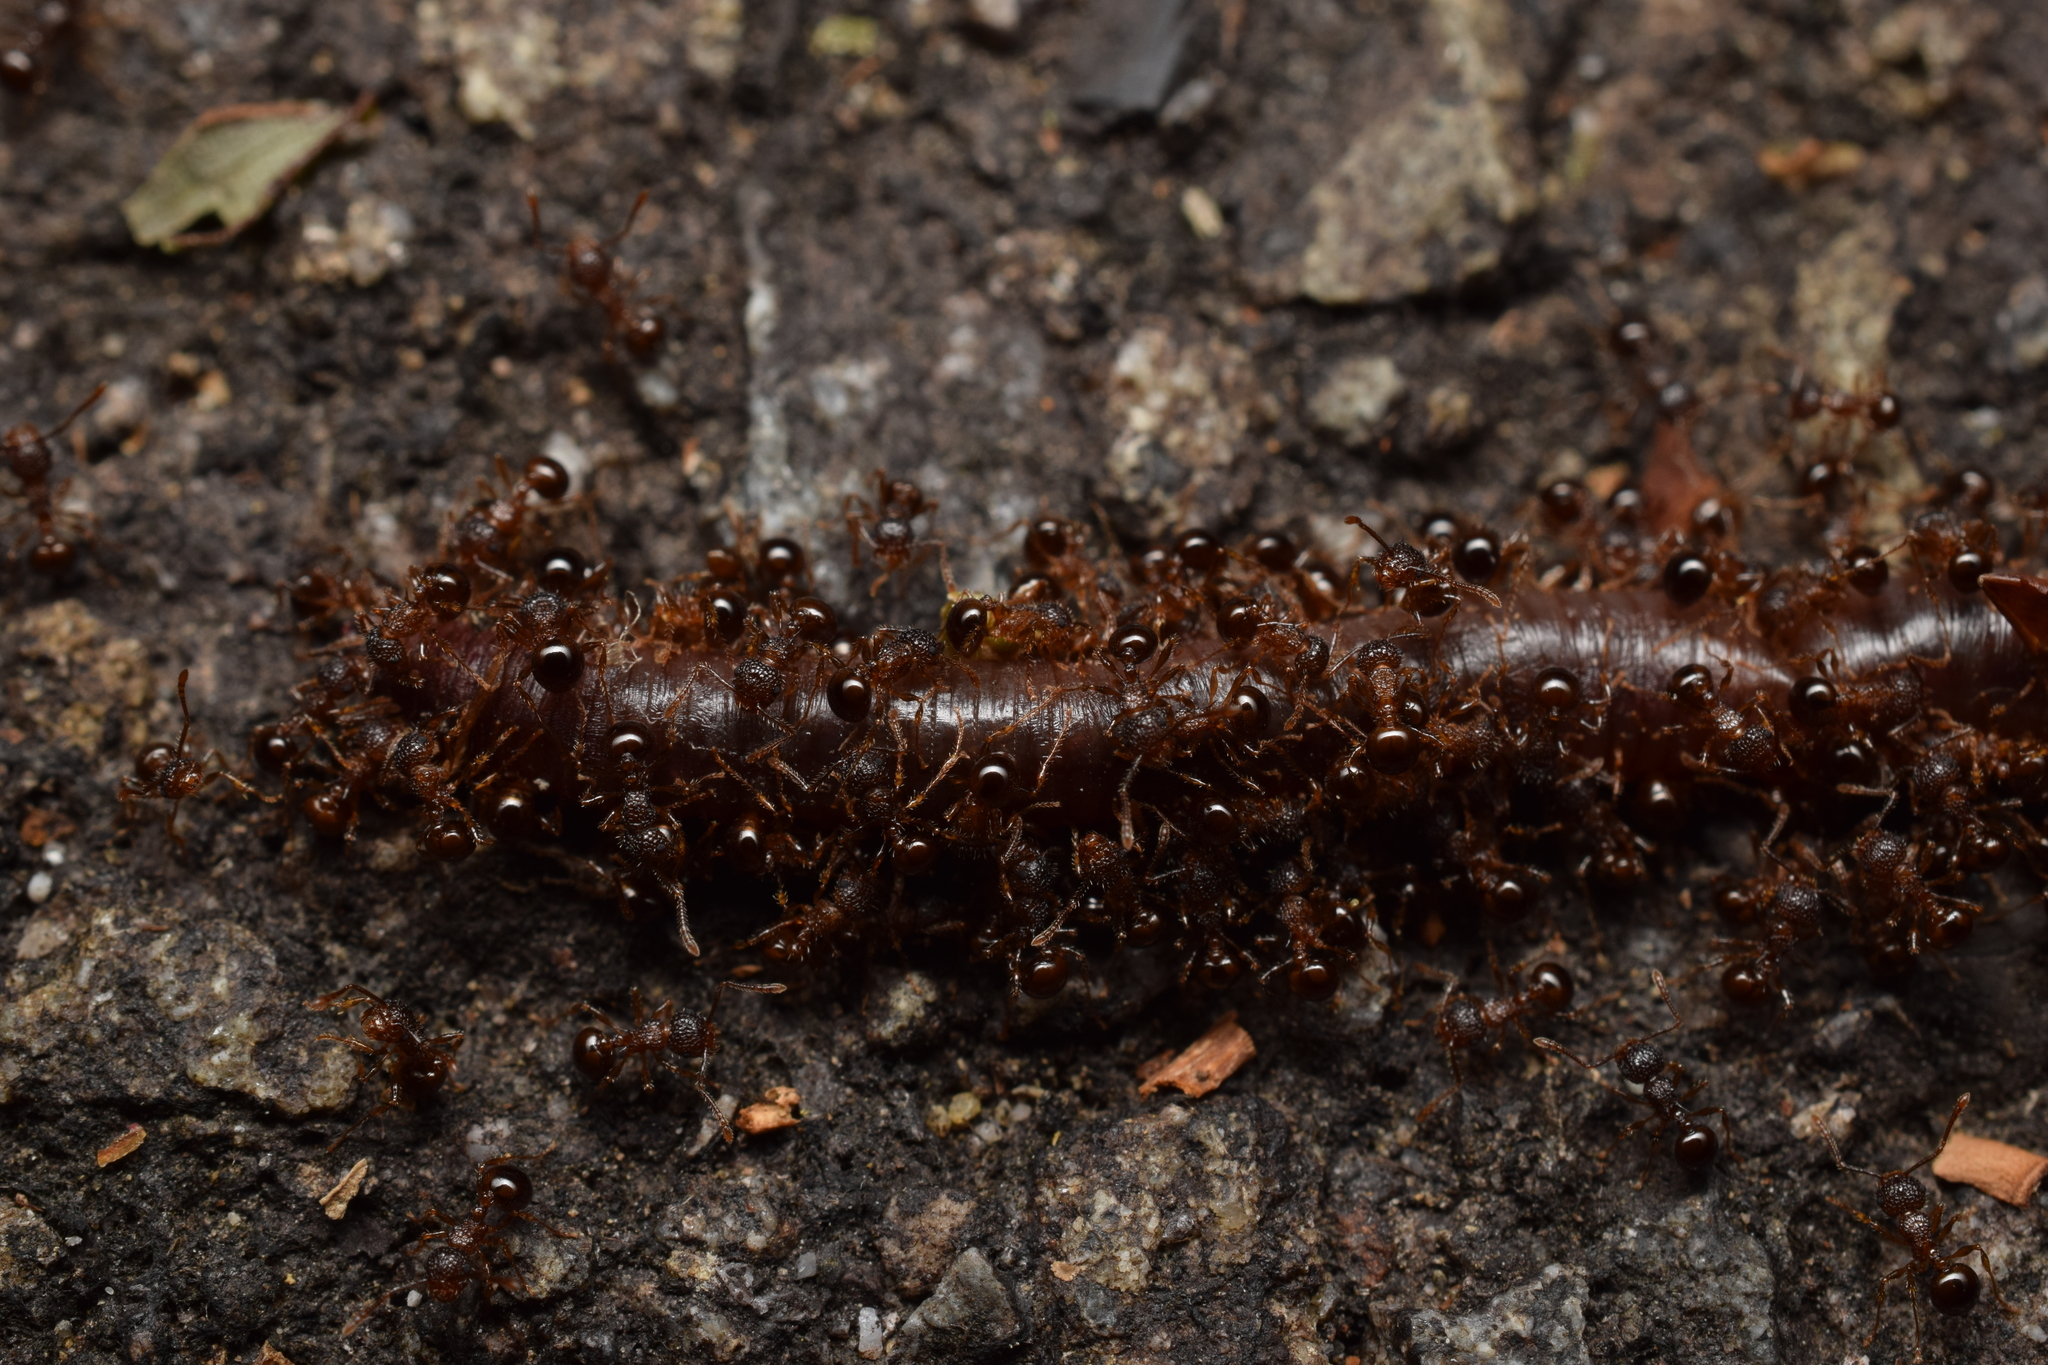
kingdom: Animalia
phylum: Arthropoda
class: Insecta
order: Hymenoptera
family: Formicidae
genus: Pristomyrmex
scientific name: Pristomyrmex punctatus
